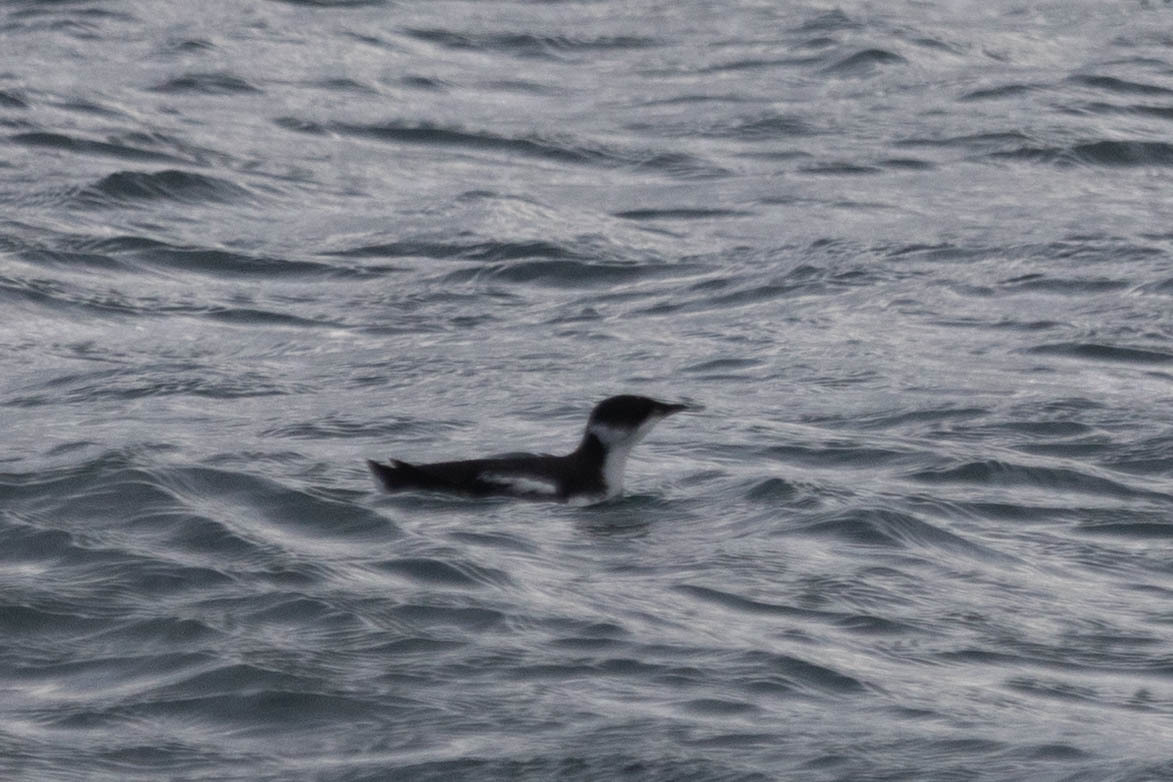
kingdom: Animalia
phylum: Chordata
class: Aves
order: Charadriiformes
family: Alcidae
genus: Brachyramphus
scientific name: Brachyramphus marmoratus
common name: Marbled murrelet
